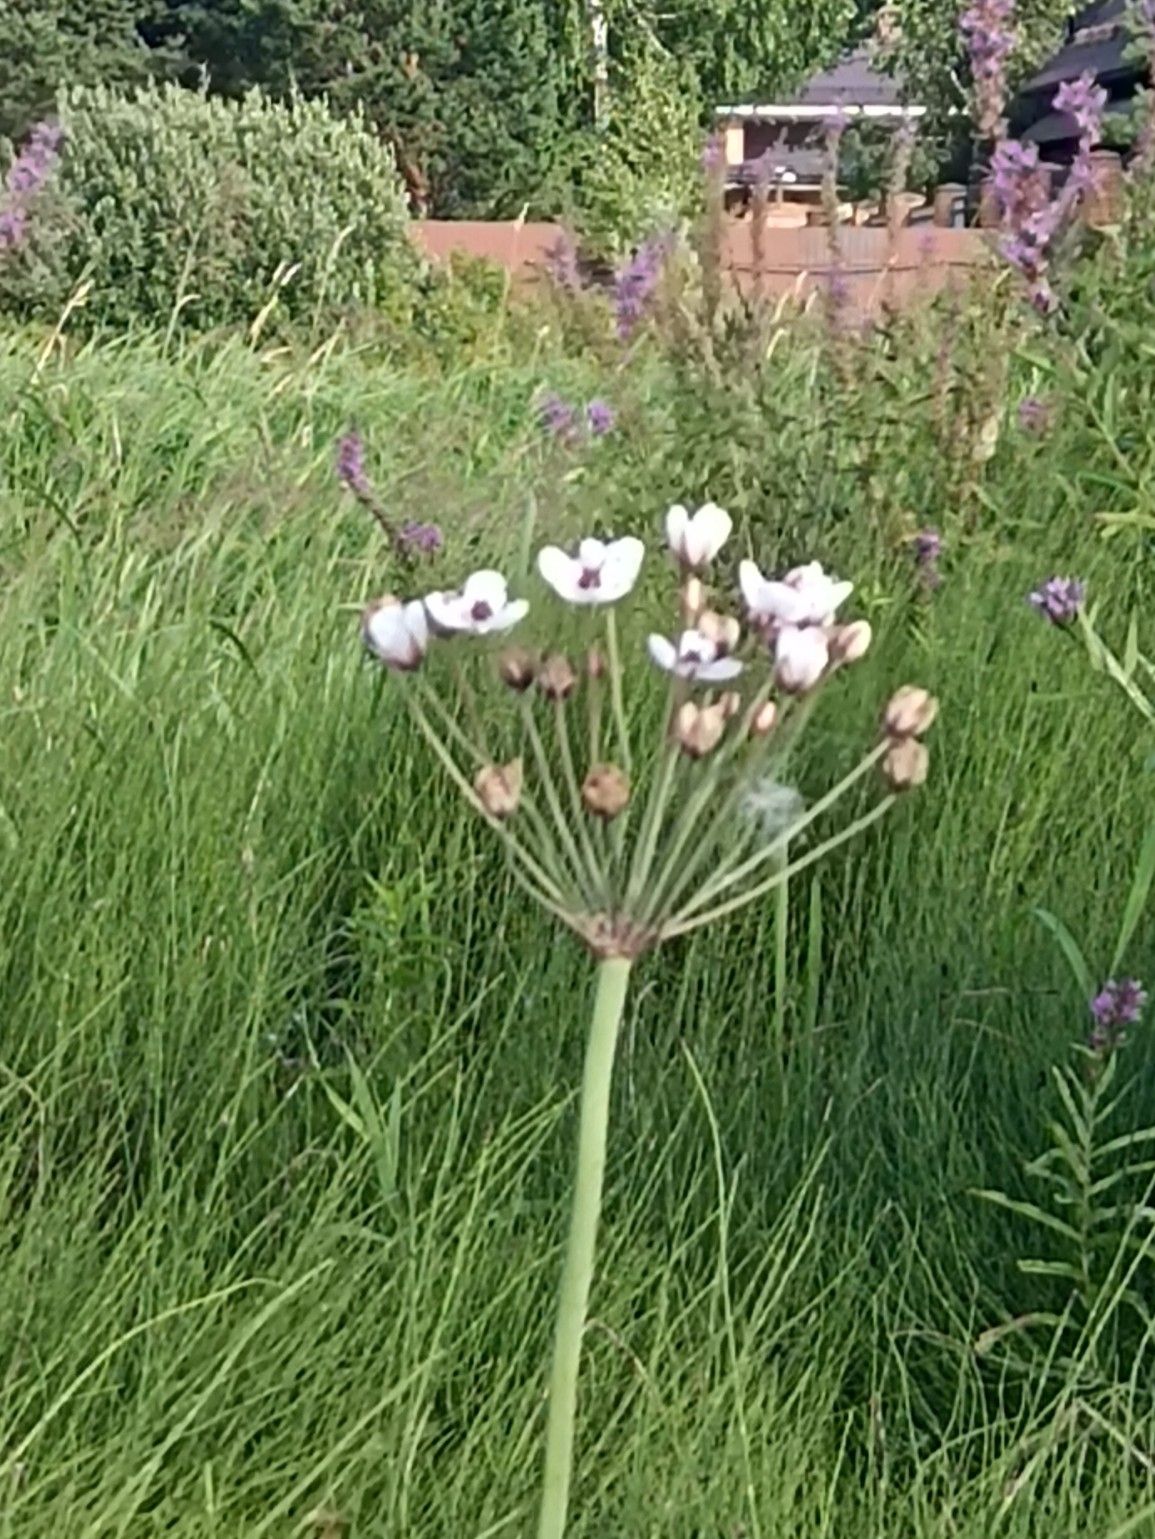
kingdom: Plantae
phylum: Tracheophyta
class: Liliopsida
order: Alismatales
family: Butomaceae
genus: Butomus
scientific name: Butomus umbellatus
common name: Flowering-rush
